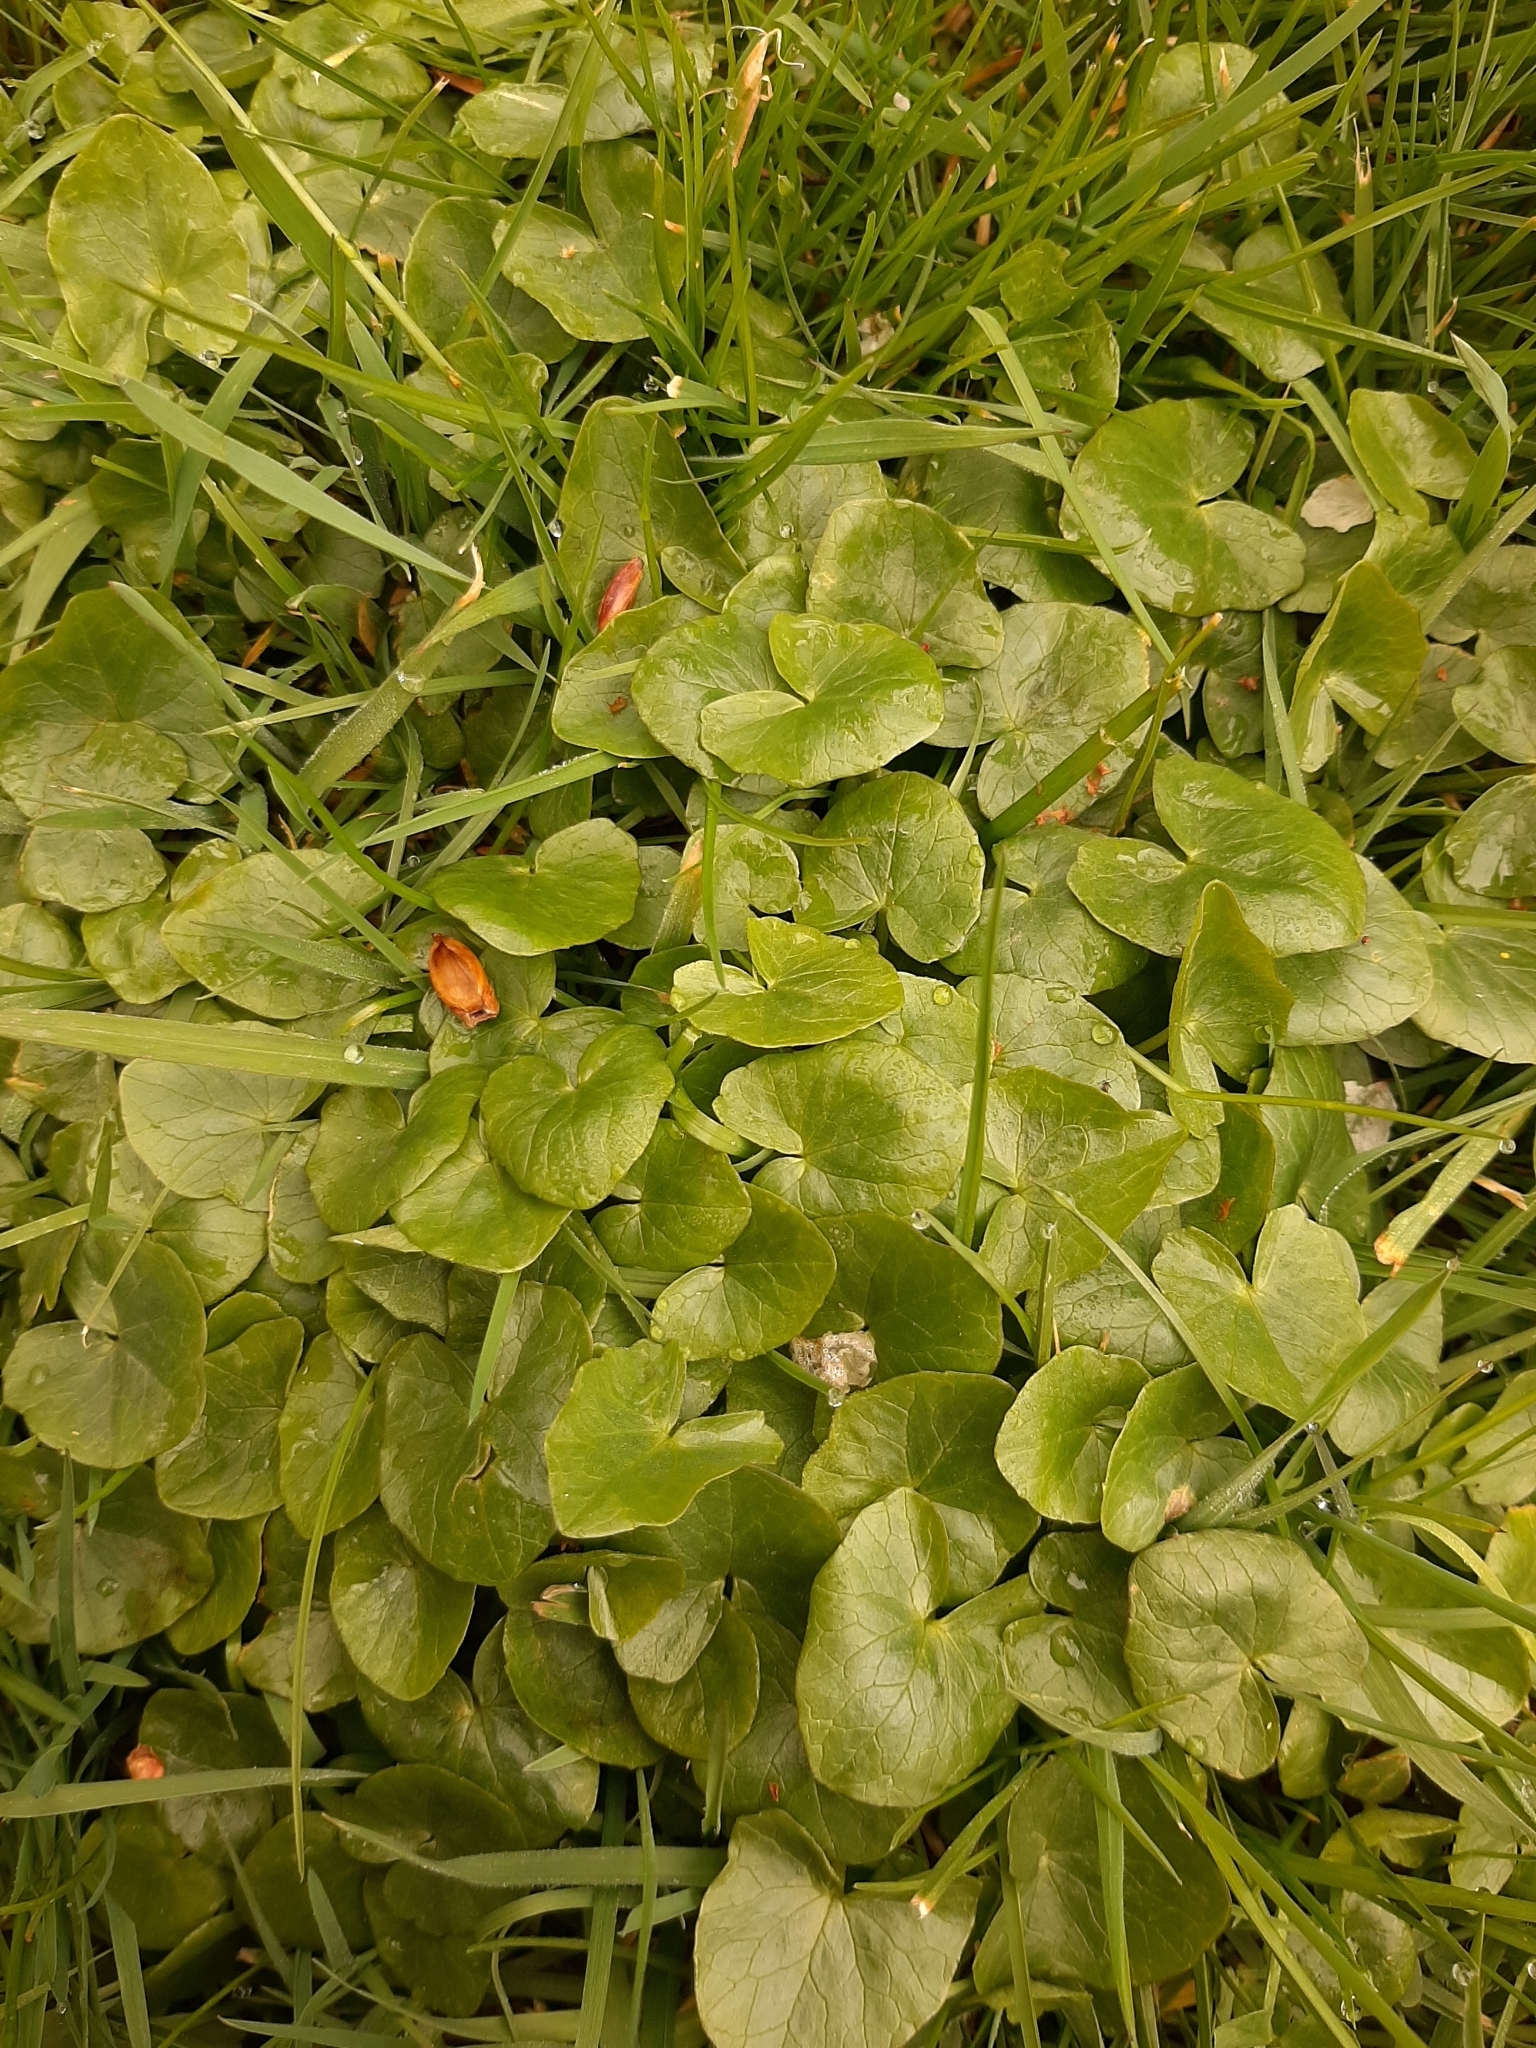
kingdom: Plantae
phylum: Tracheophyta
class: Magnoliopsida
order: Ranunculales
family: Ranunculaceae
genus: Ficaria
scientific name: Ficaria verna
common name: Lesser celandine
